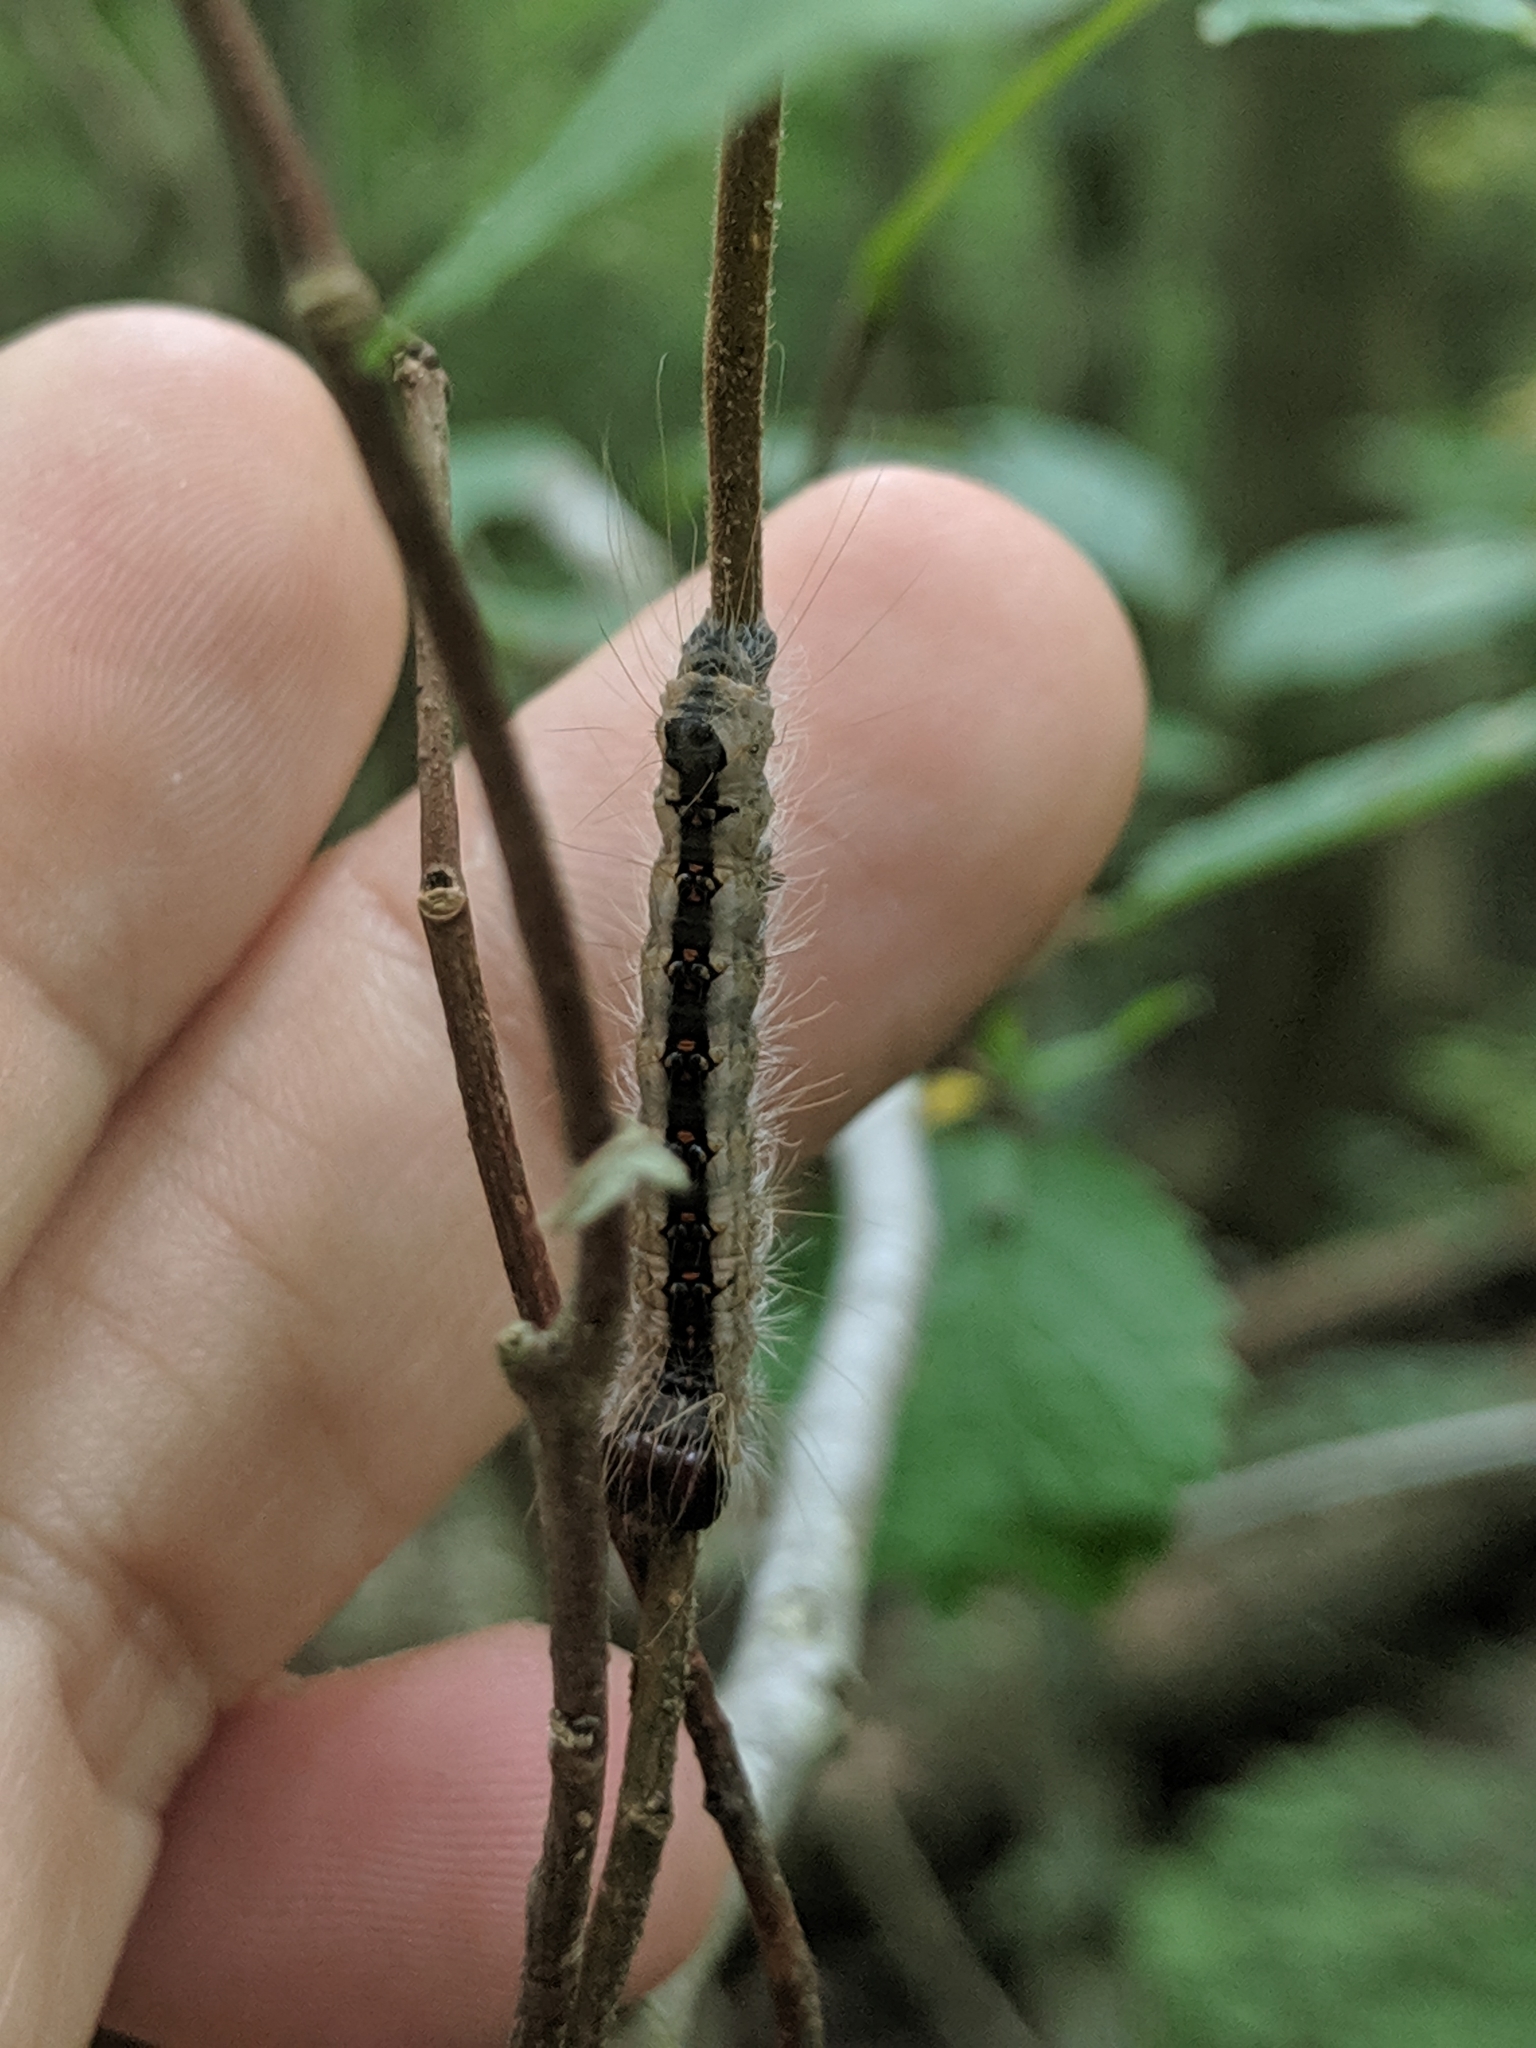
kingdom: Animalia
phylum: Arthropoda
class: Insecta
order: Lepidoptera
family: Noctuidae
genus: Acronicta
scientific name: Acronicta interrupta
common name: Interrupted dagger
